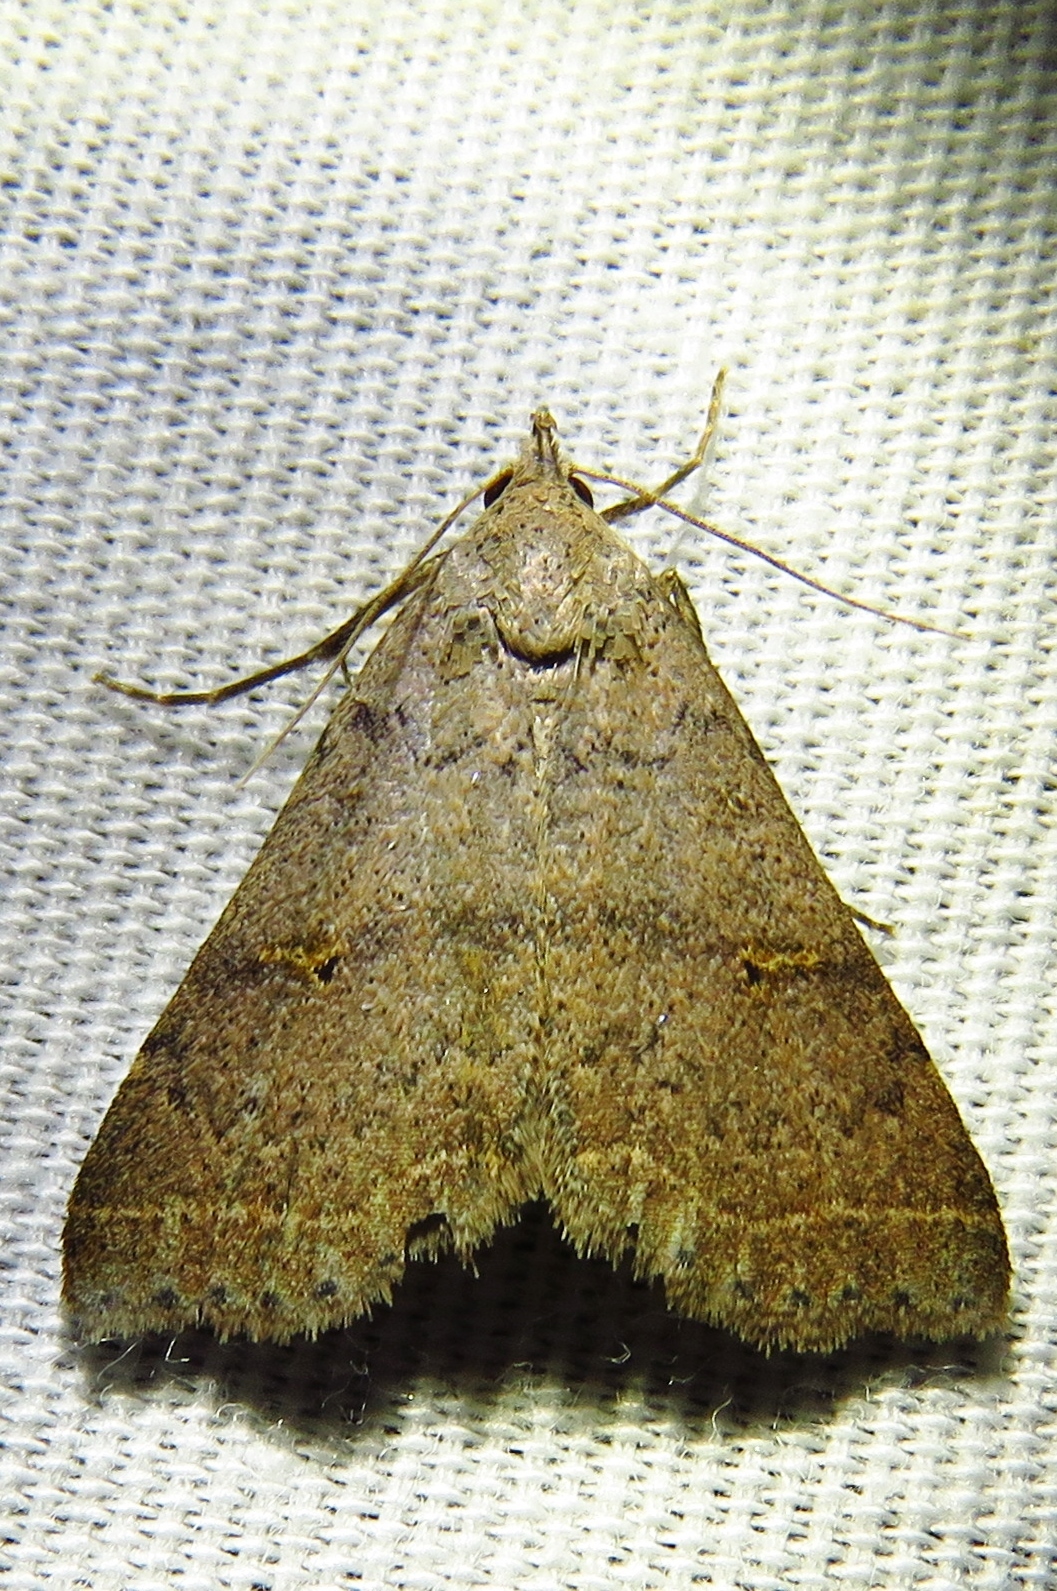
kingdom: Animalia
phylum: Arthropoda
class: Insecta
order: Lepidoptera
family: Erebidae
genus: Bleptina
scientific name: Bleptina caradrinalis
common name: Bent-winged owlet
